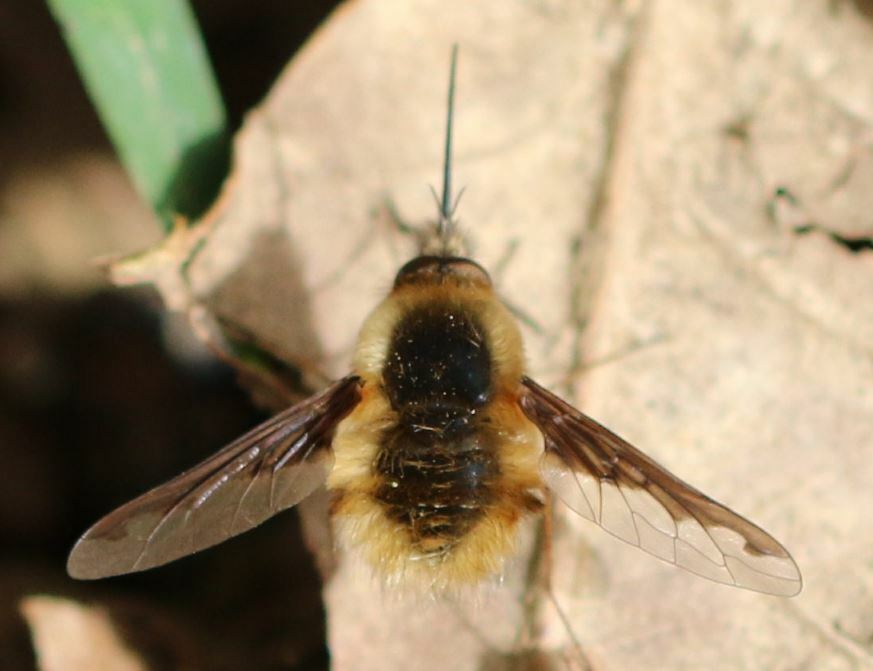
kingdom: Animalia
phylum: Arthropoda
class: Insecta
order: Diptera
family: Bombyliidae
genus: Bombylius
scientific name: Bombylius major
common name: Bee fly
